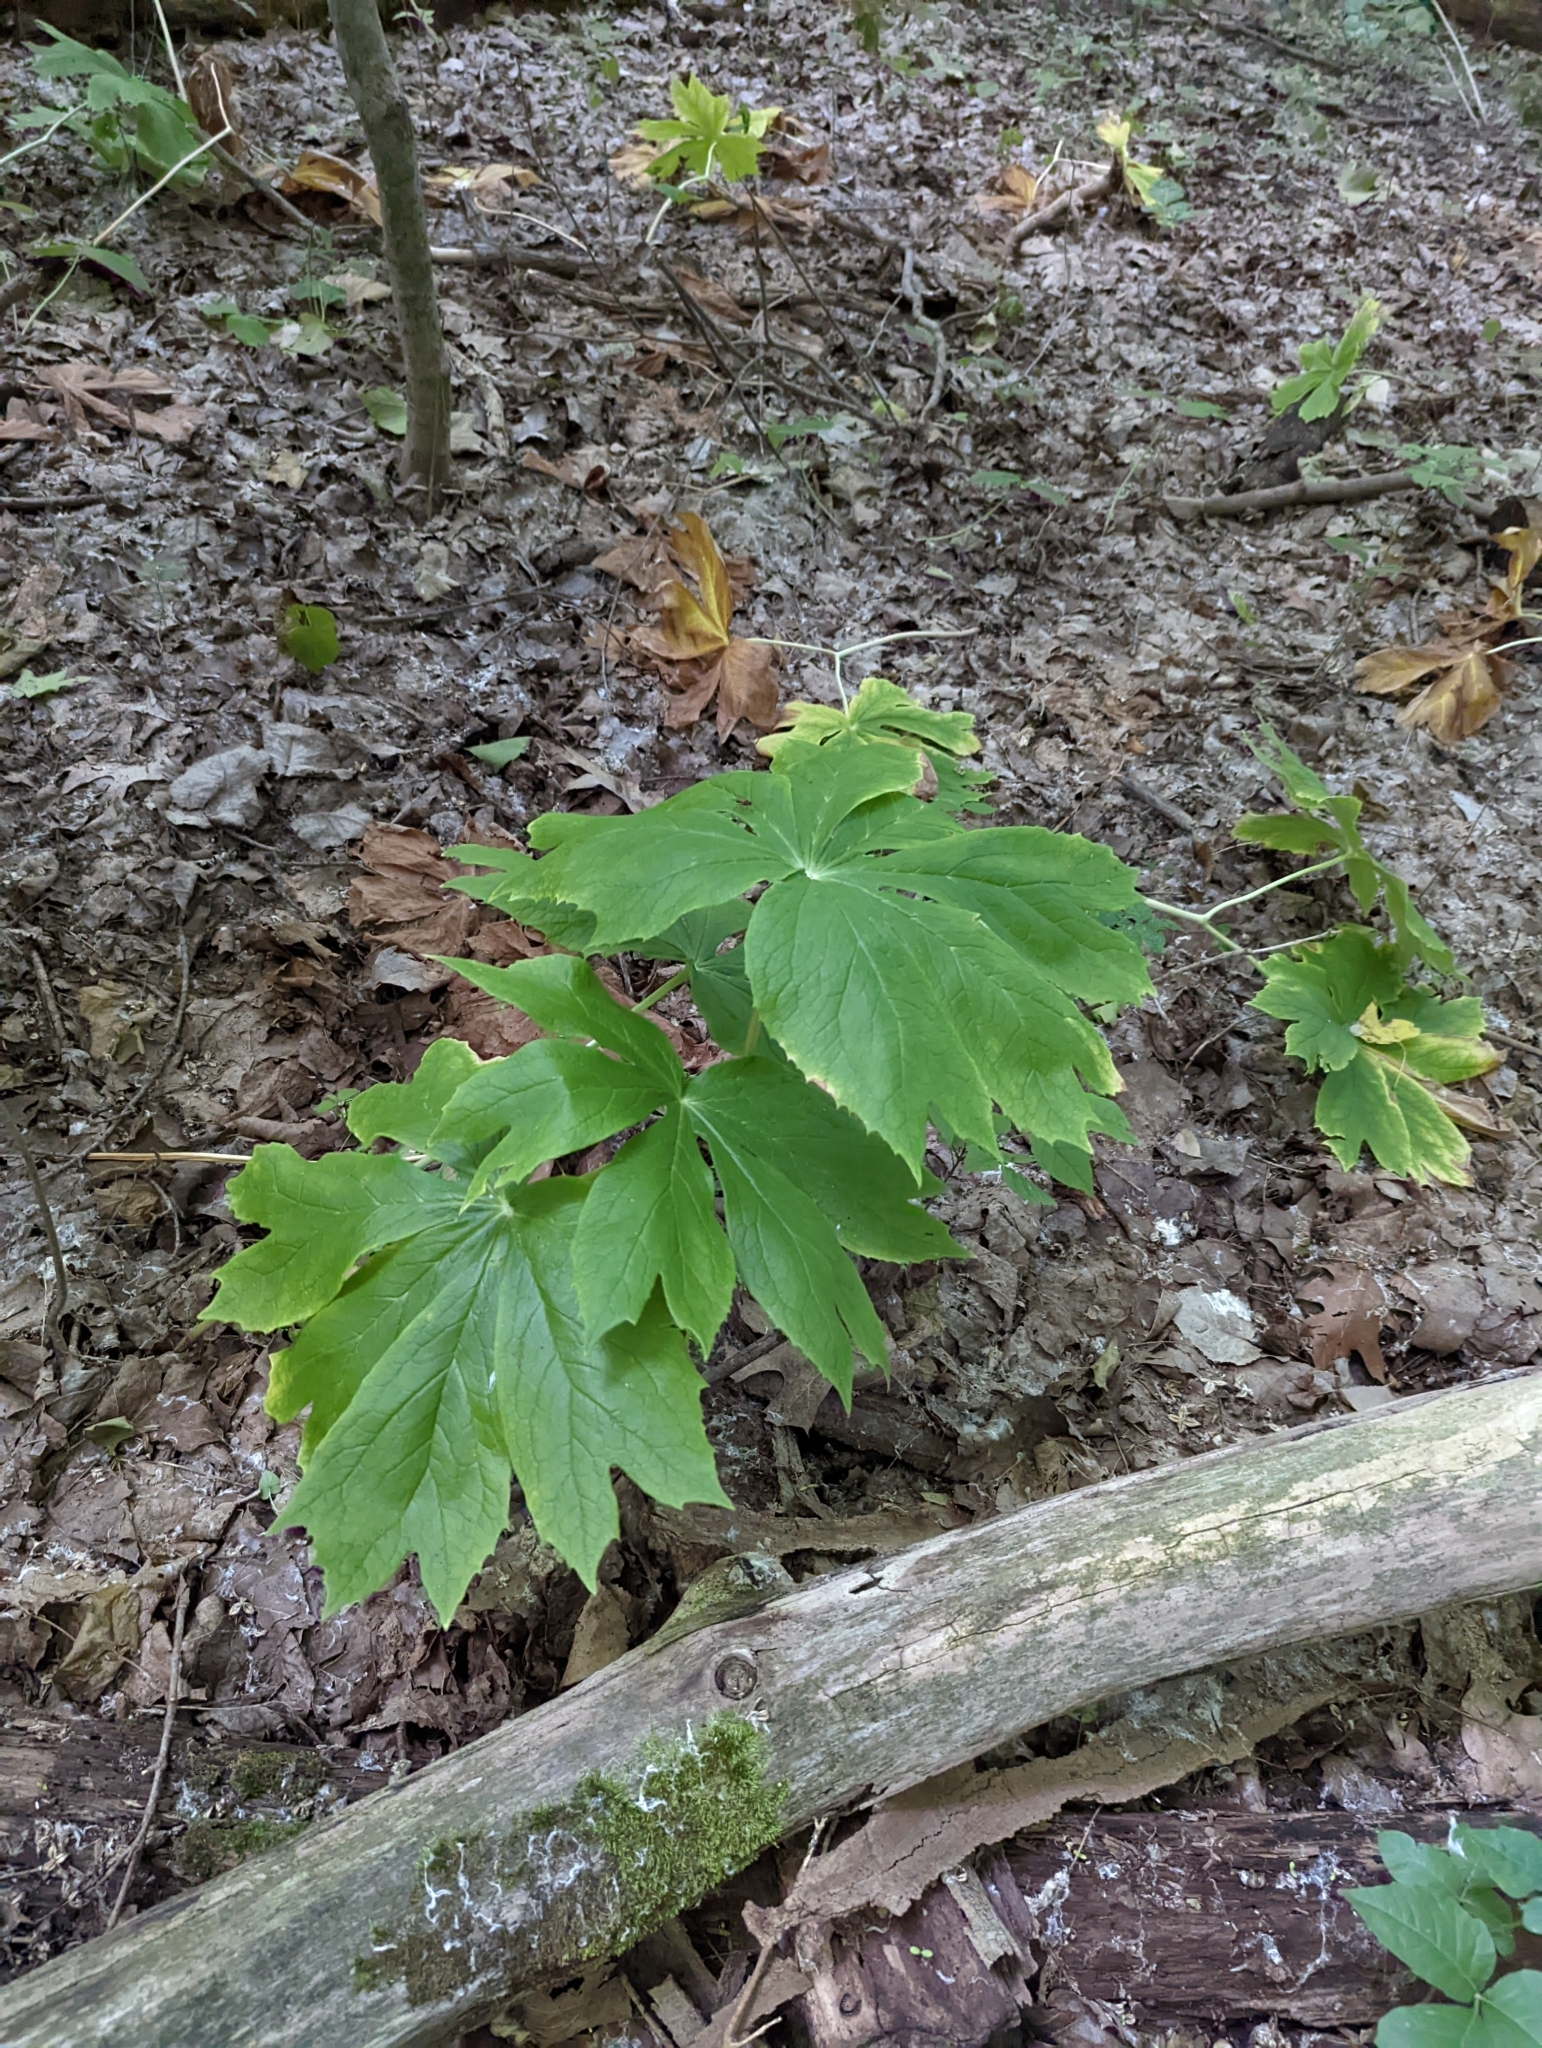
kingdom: Plantae
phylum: Tracheophyta
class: Magnoliopsida
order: Ranunculales
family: Berberidaceae
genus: Podophyllum
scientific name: Podophyllum peltatum
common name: Wild mandrake
